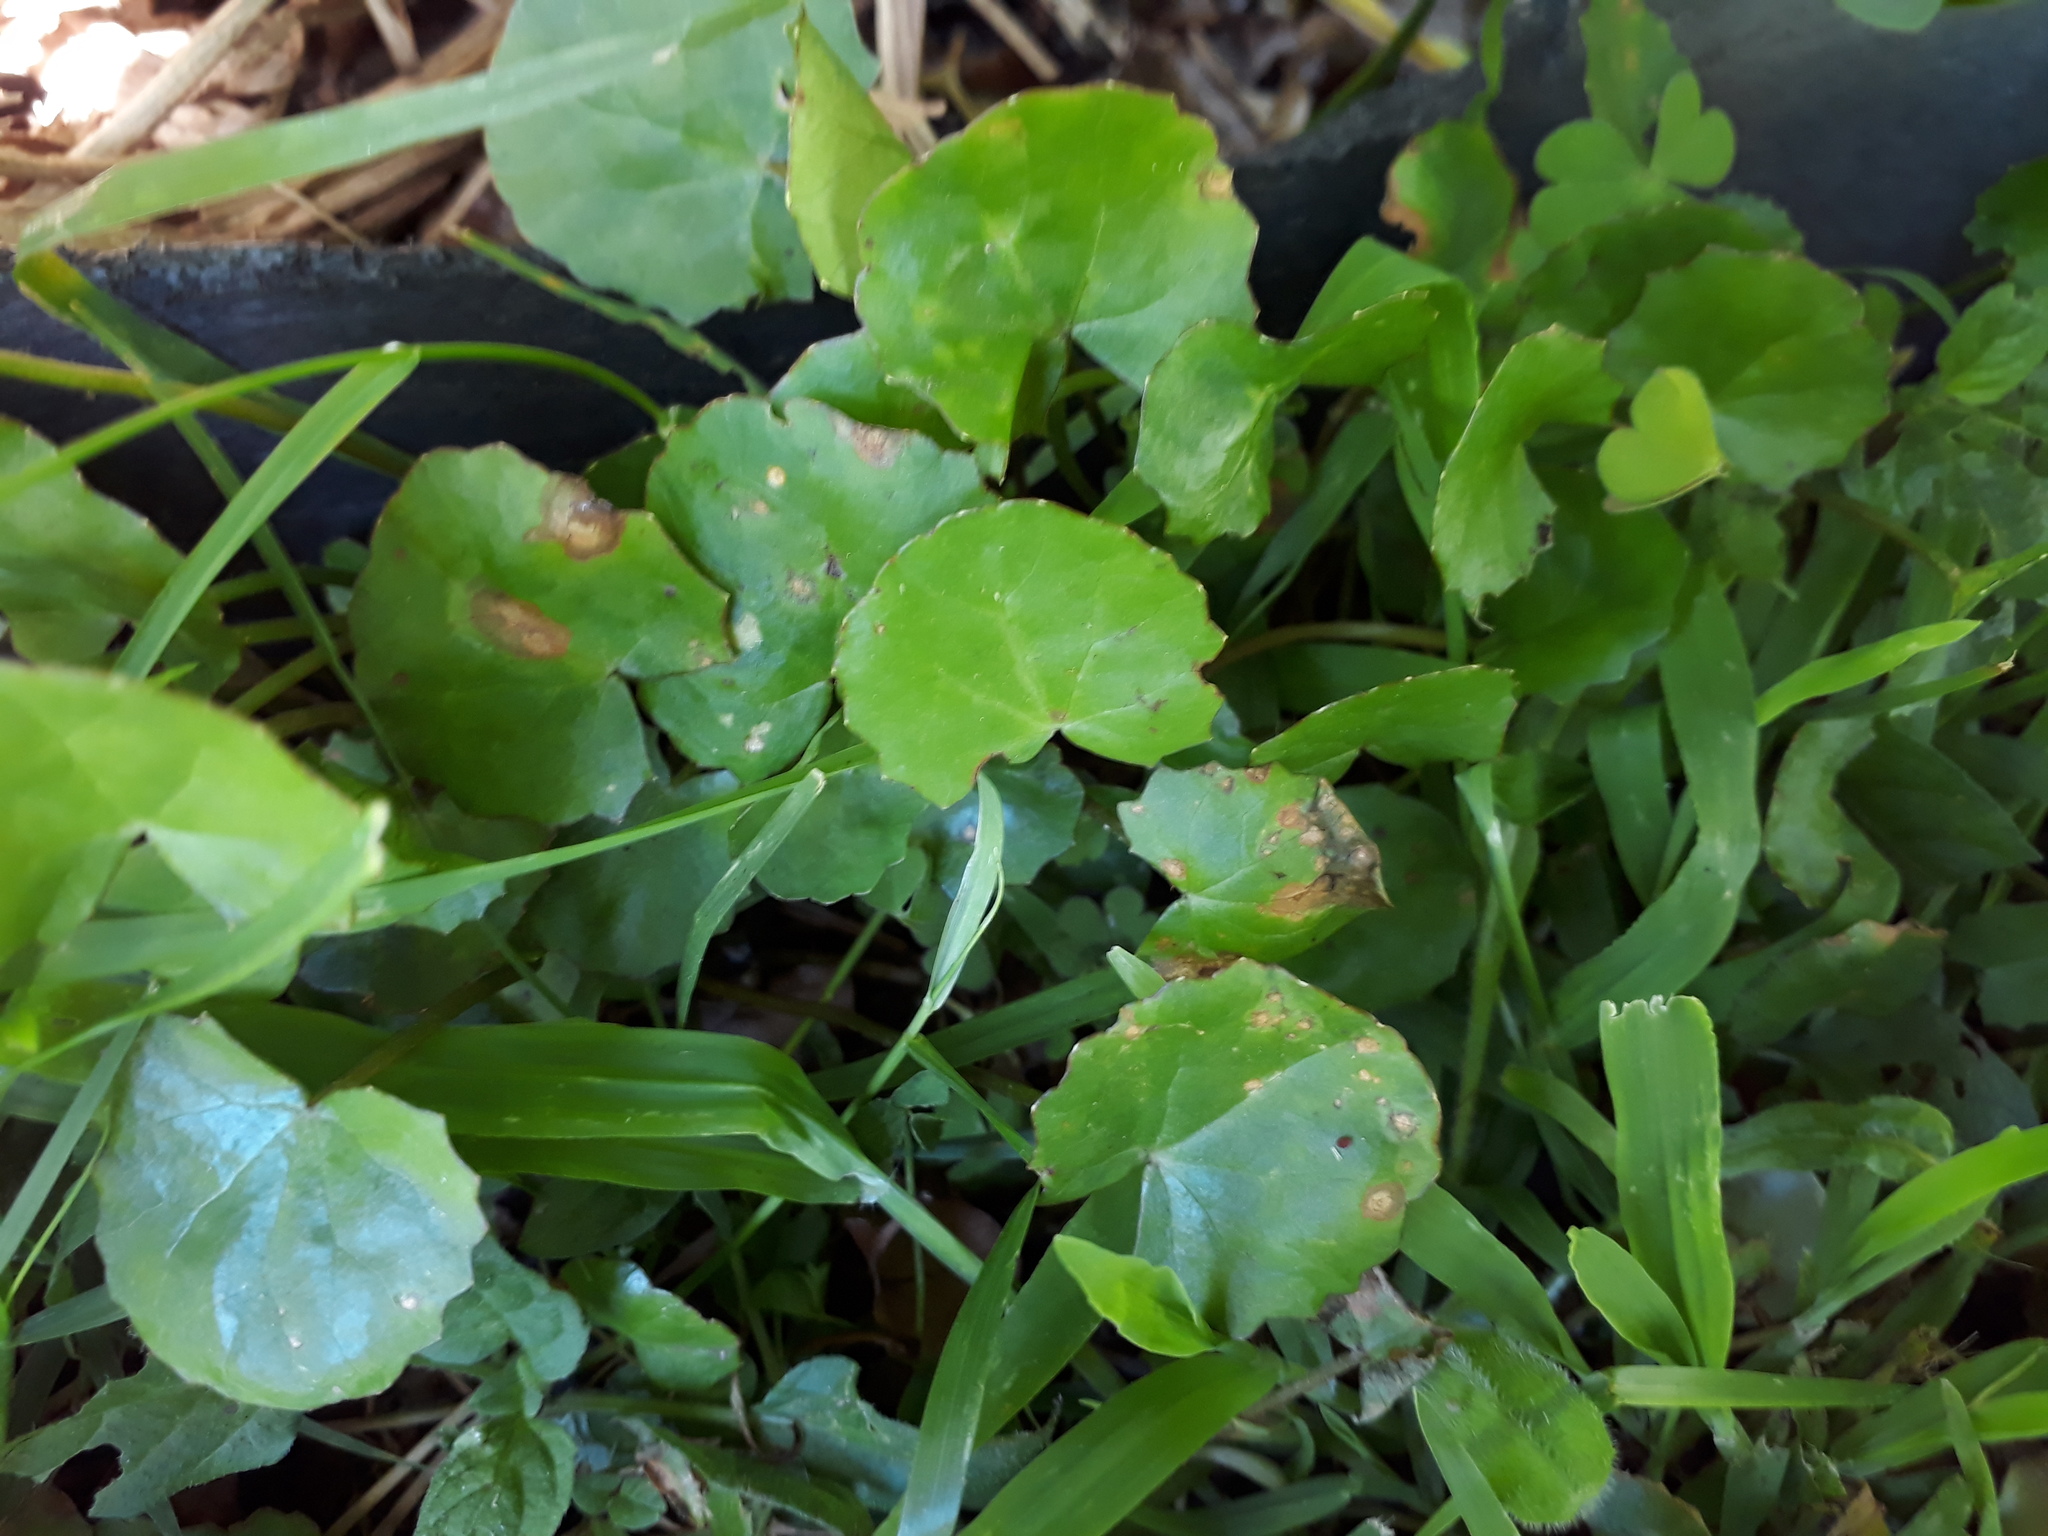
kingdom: Plantae
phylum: Tracheophyta
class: Magnoliopsida
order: Apiales
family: Apiaceae
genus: Centella
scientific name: Centella uniflora
